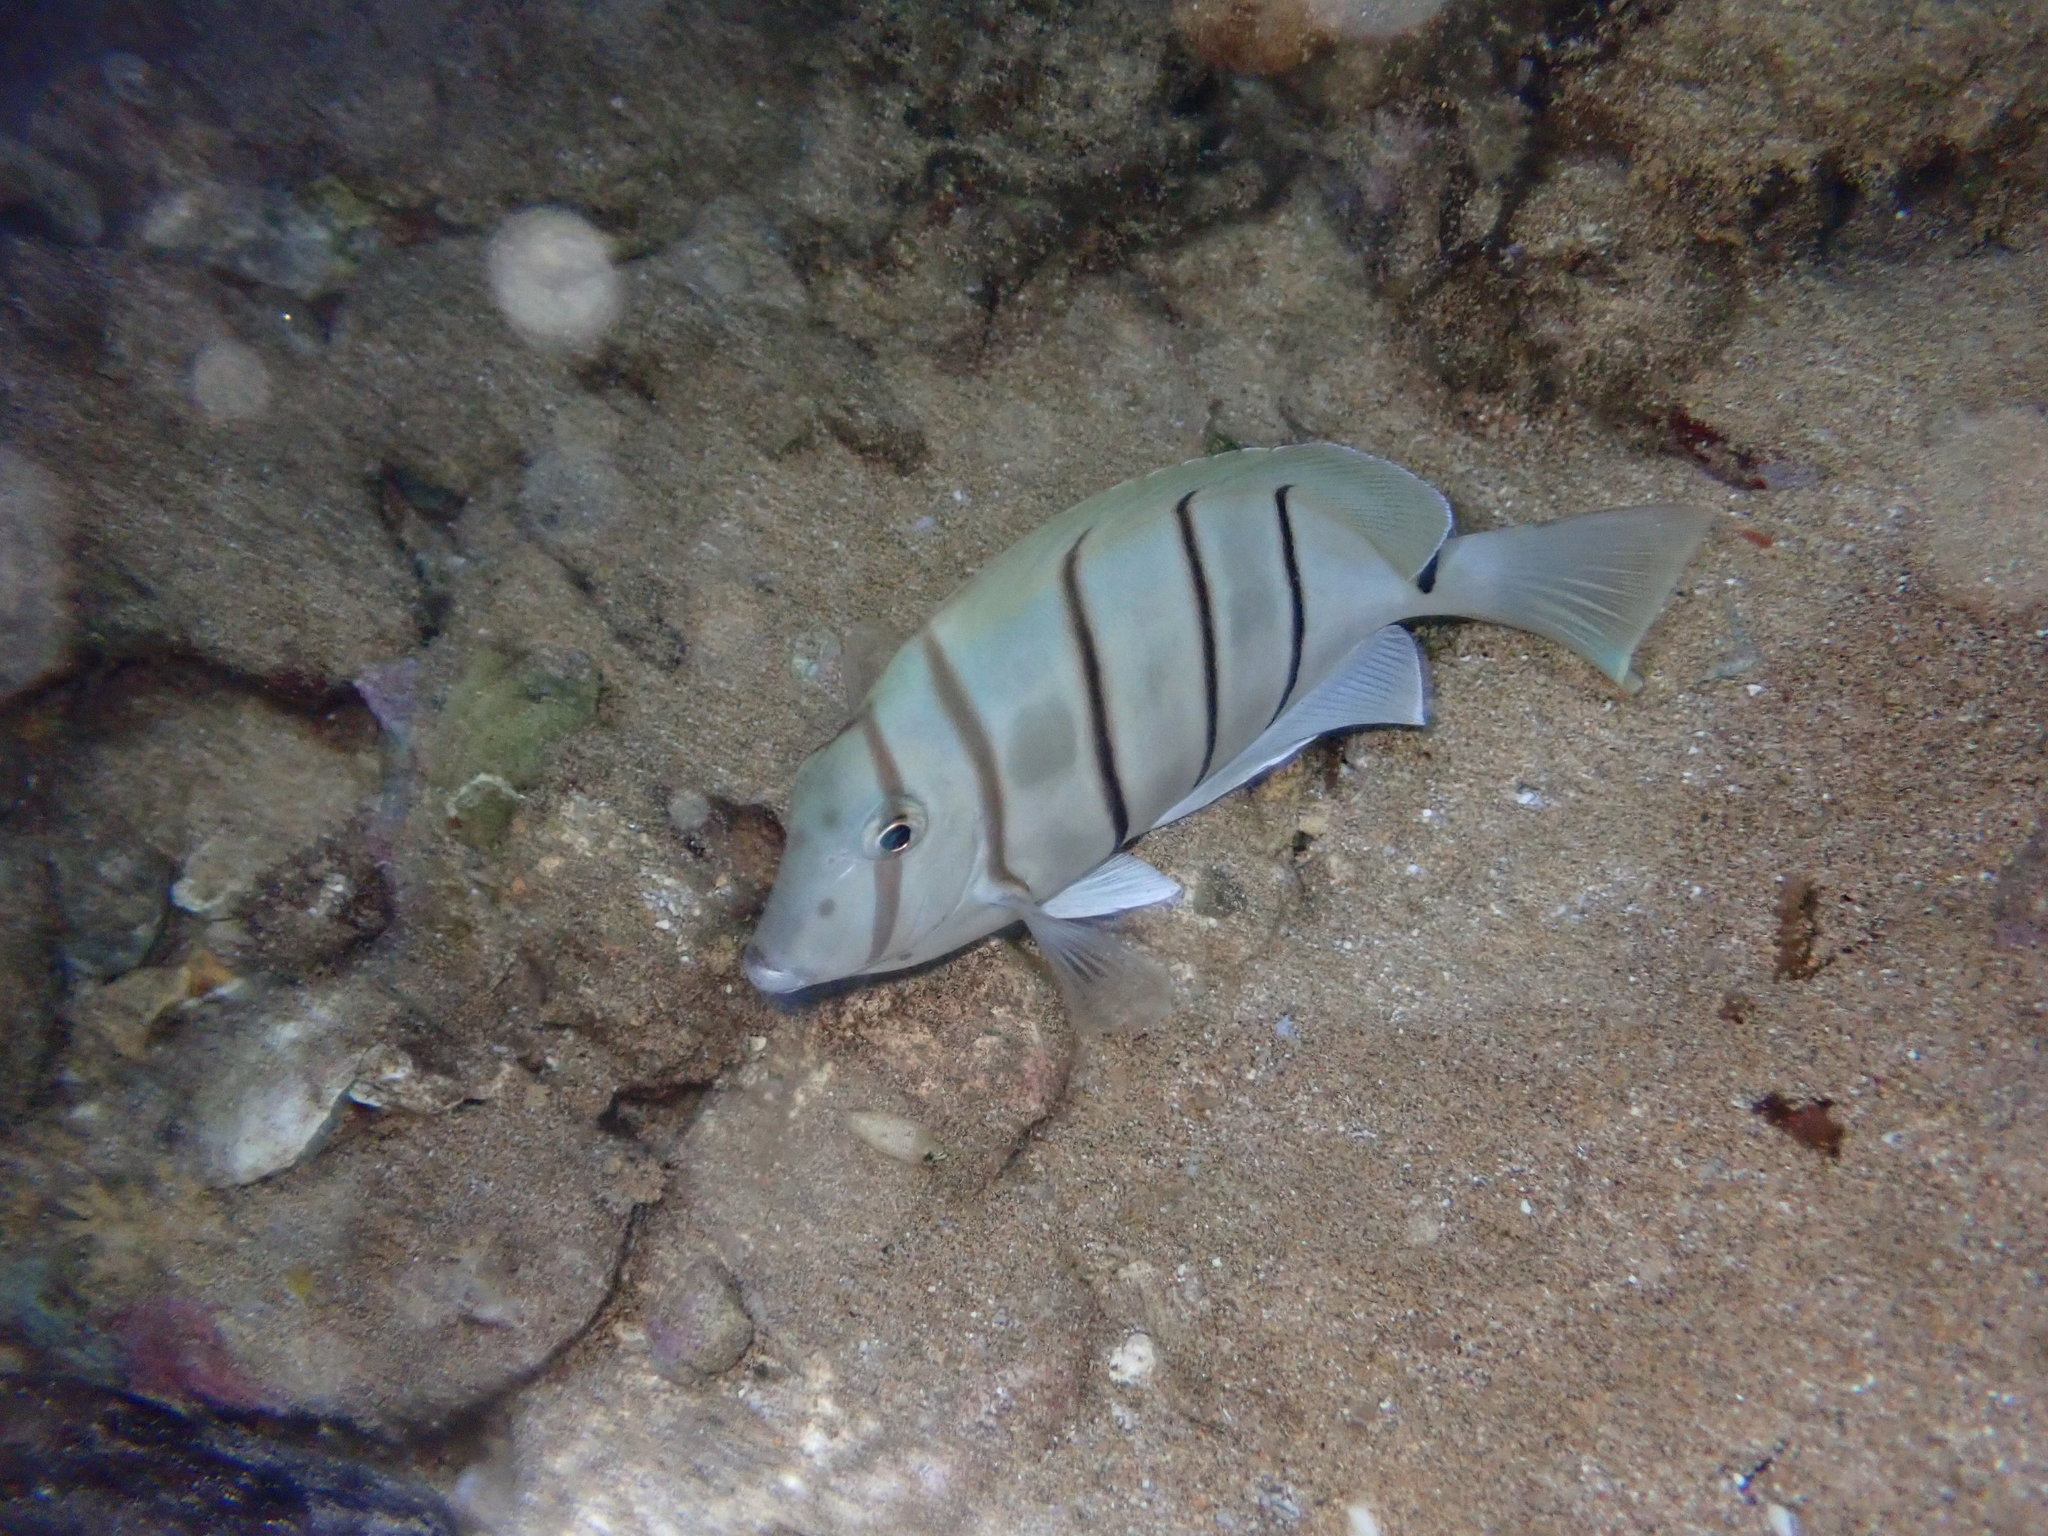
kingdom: Animalia
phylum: Chordata
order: Perciformes
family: Acanthuridae
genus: Acanthurus
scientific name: Acanthurus triostegus
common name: Convict surgeonfish
